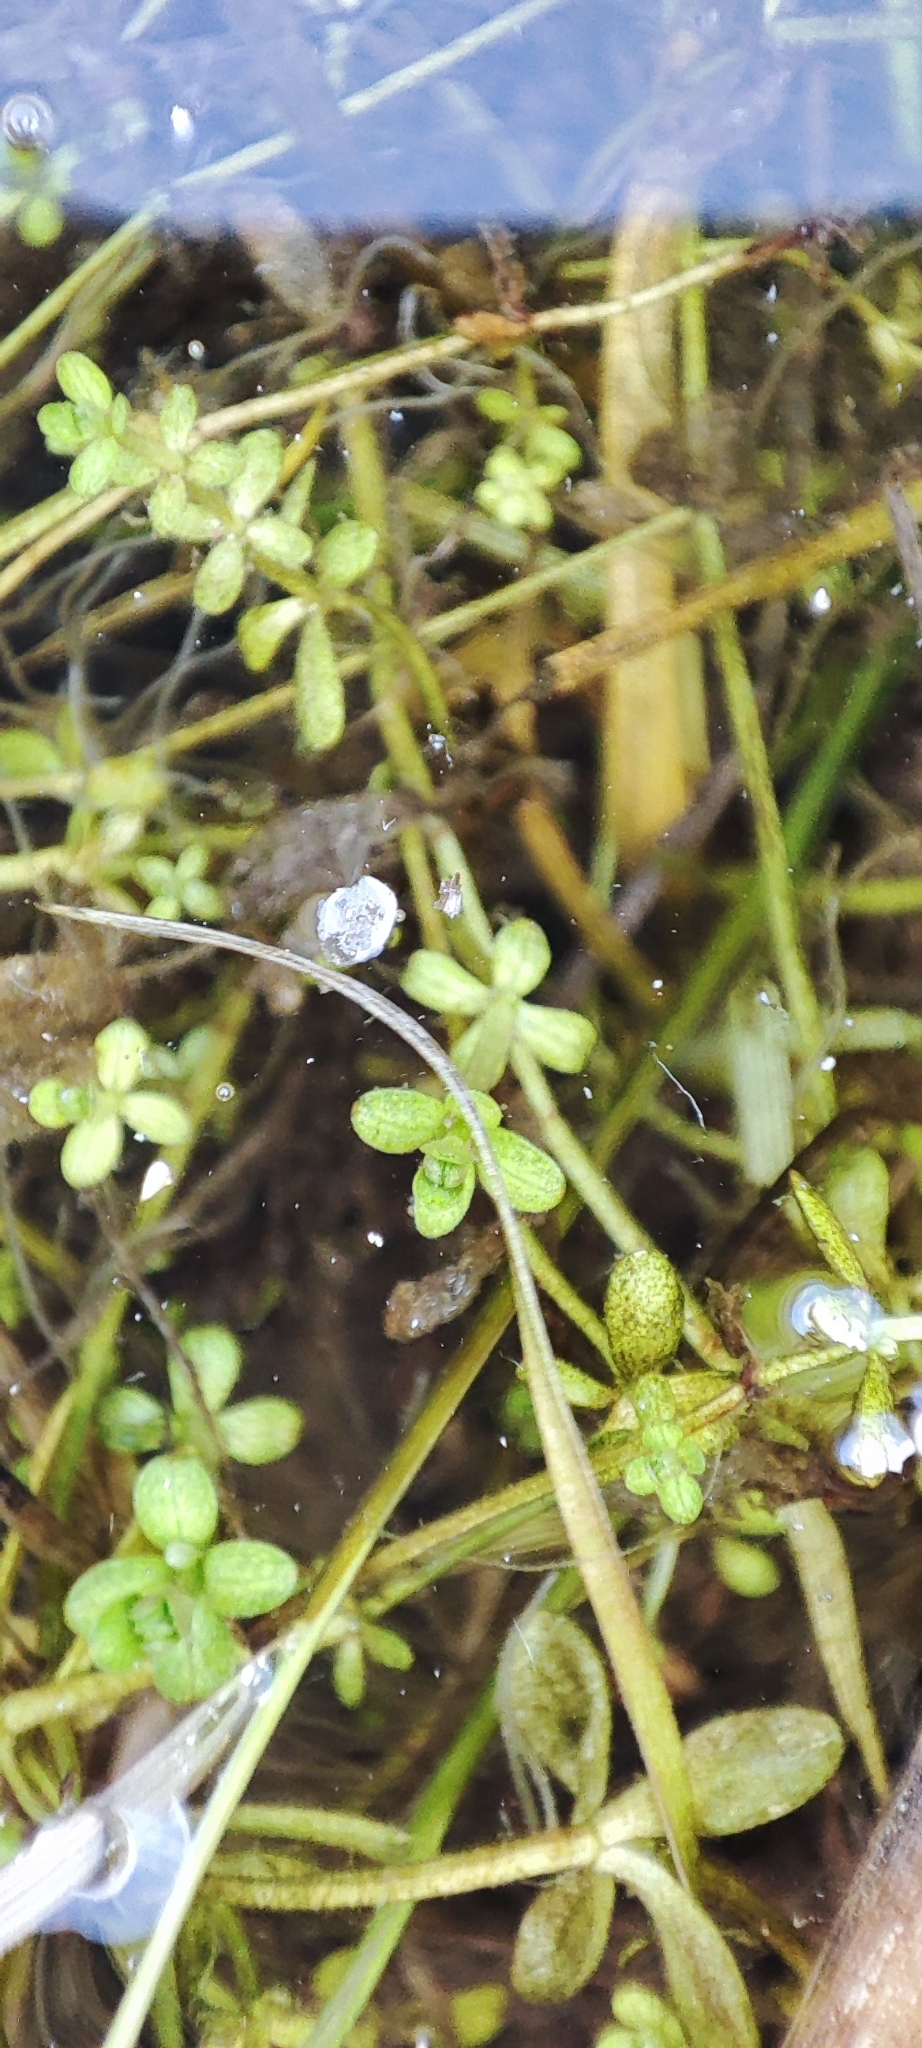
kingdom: Plantae
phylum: Tracheophyta
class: Magnoliopsida
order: Gentianales
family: Rubiaceae
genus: Galium
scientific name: Galium palustre
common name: Common marsh-bedstraw
